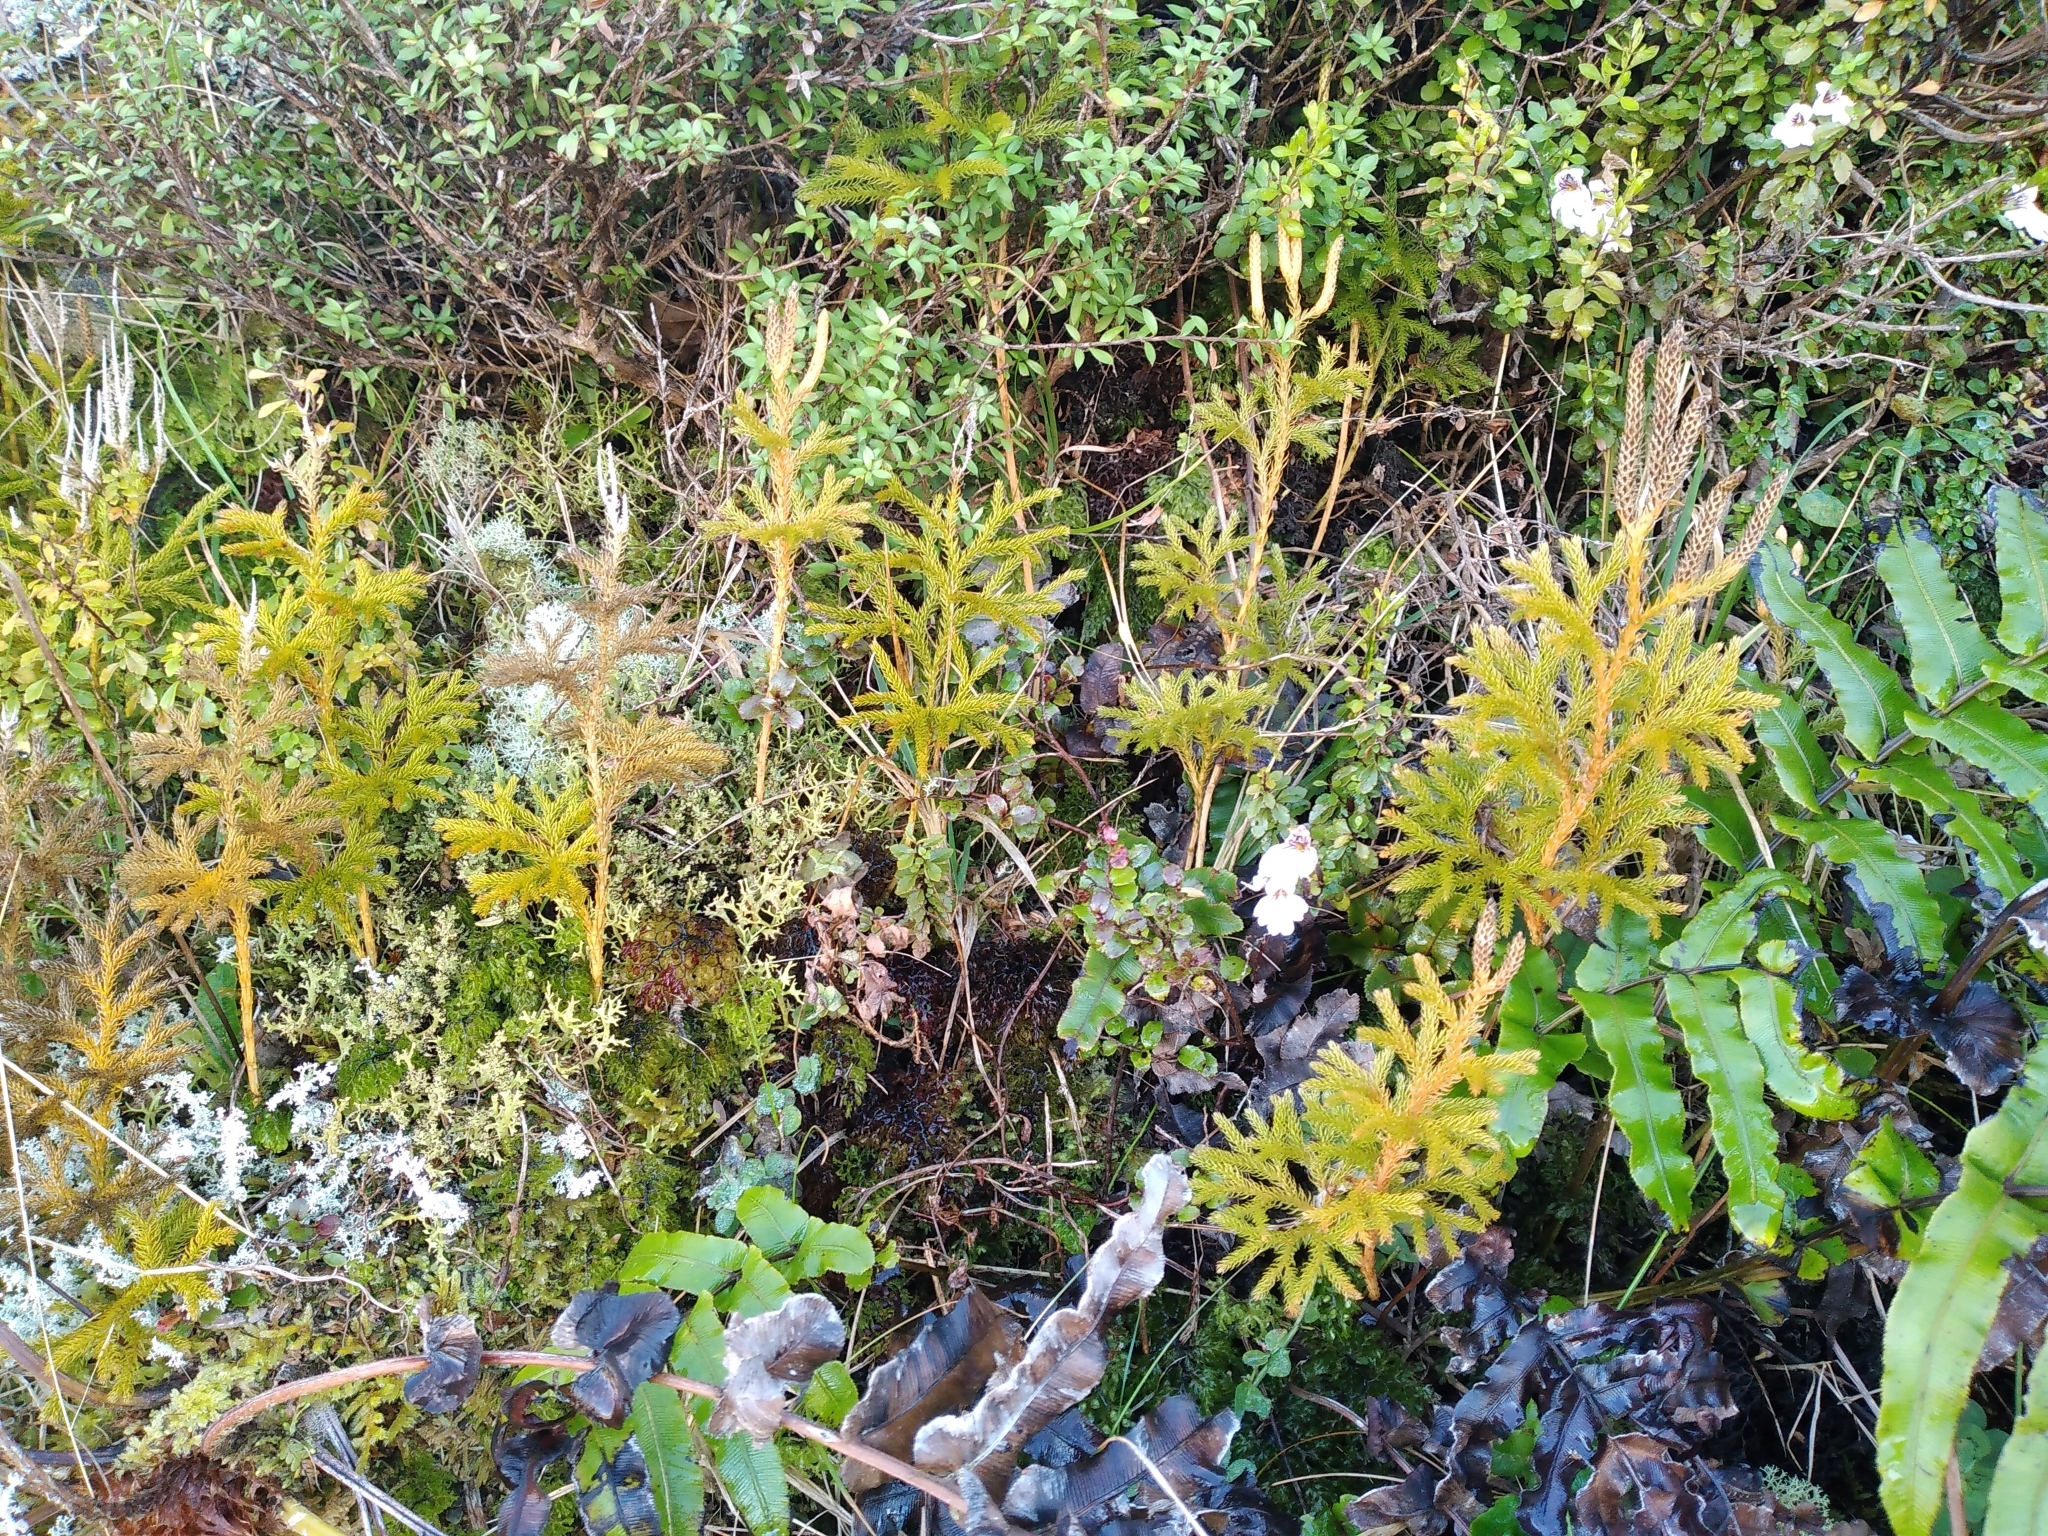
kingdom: Plantae
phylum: Tracheophyta
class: Lycopodiopsida
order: Lycopodiales
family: Lycopodiaceae
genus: Austrolycopodium
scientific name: Austrolycopodium fastigiatum
